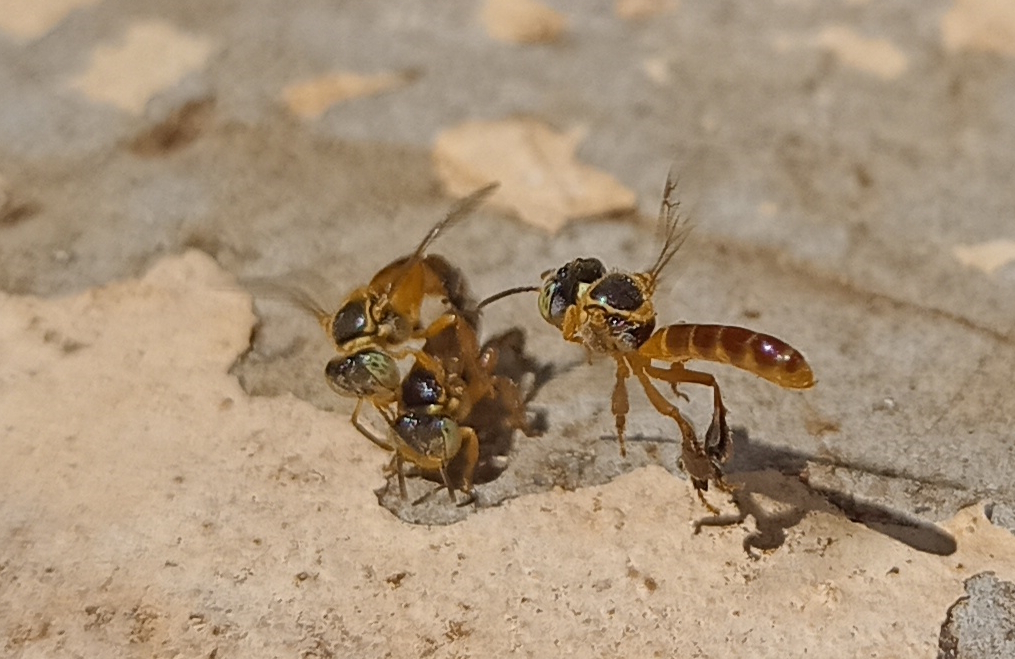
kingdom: Animalia
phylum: Arthropoda
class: Insecta
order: Hymenoptera
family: Apidae
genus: Tetragonisca
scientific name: Tetragonisca angustula
